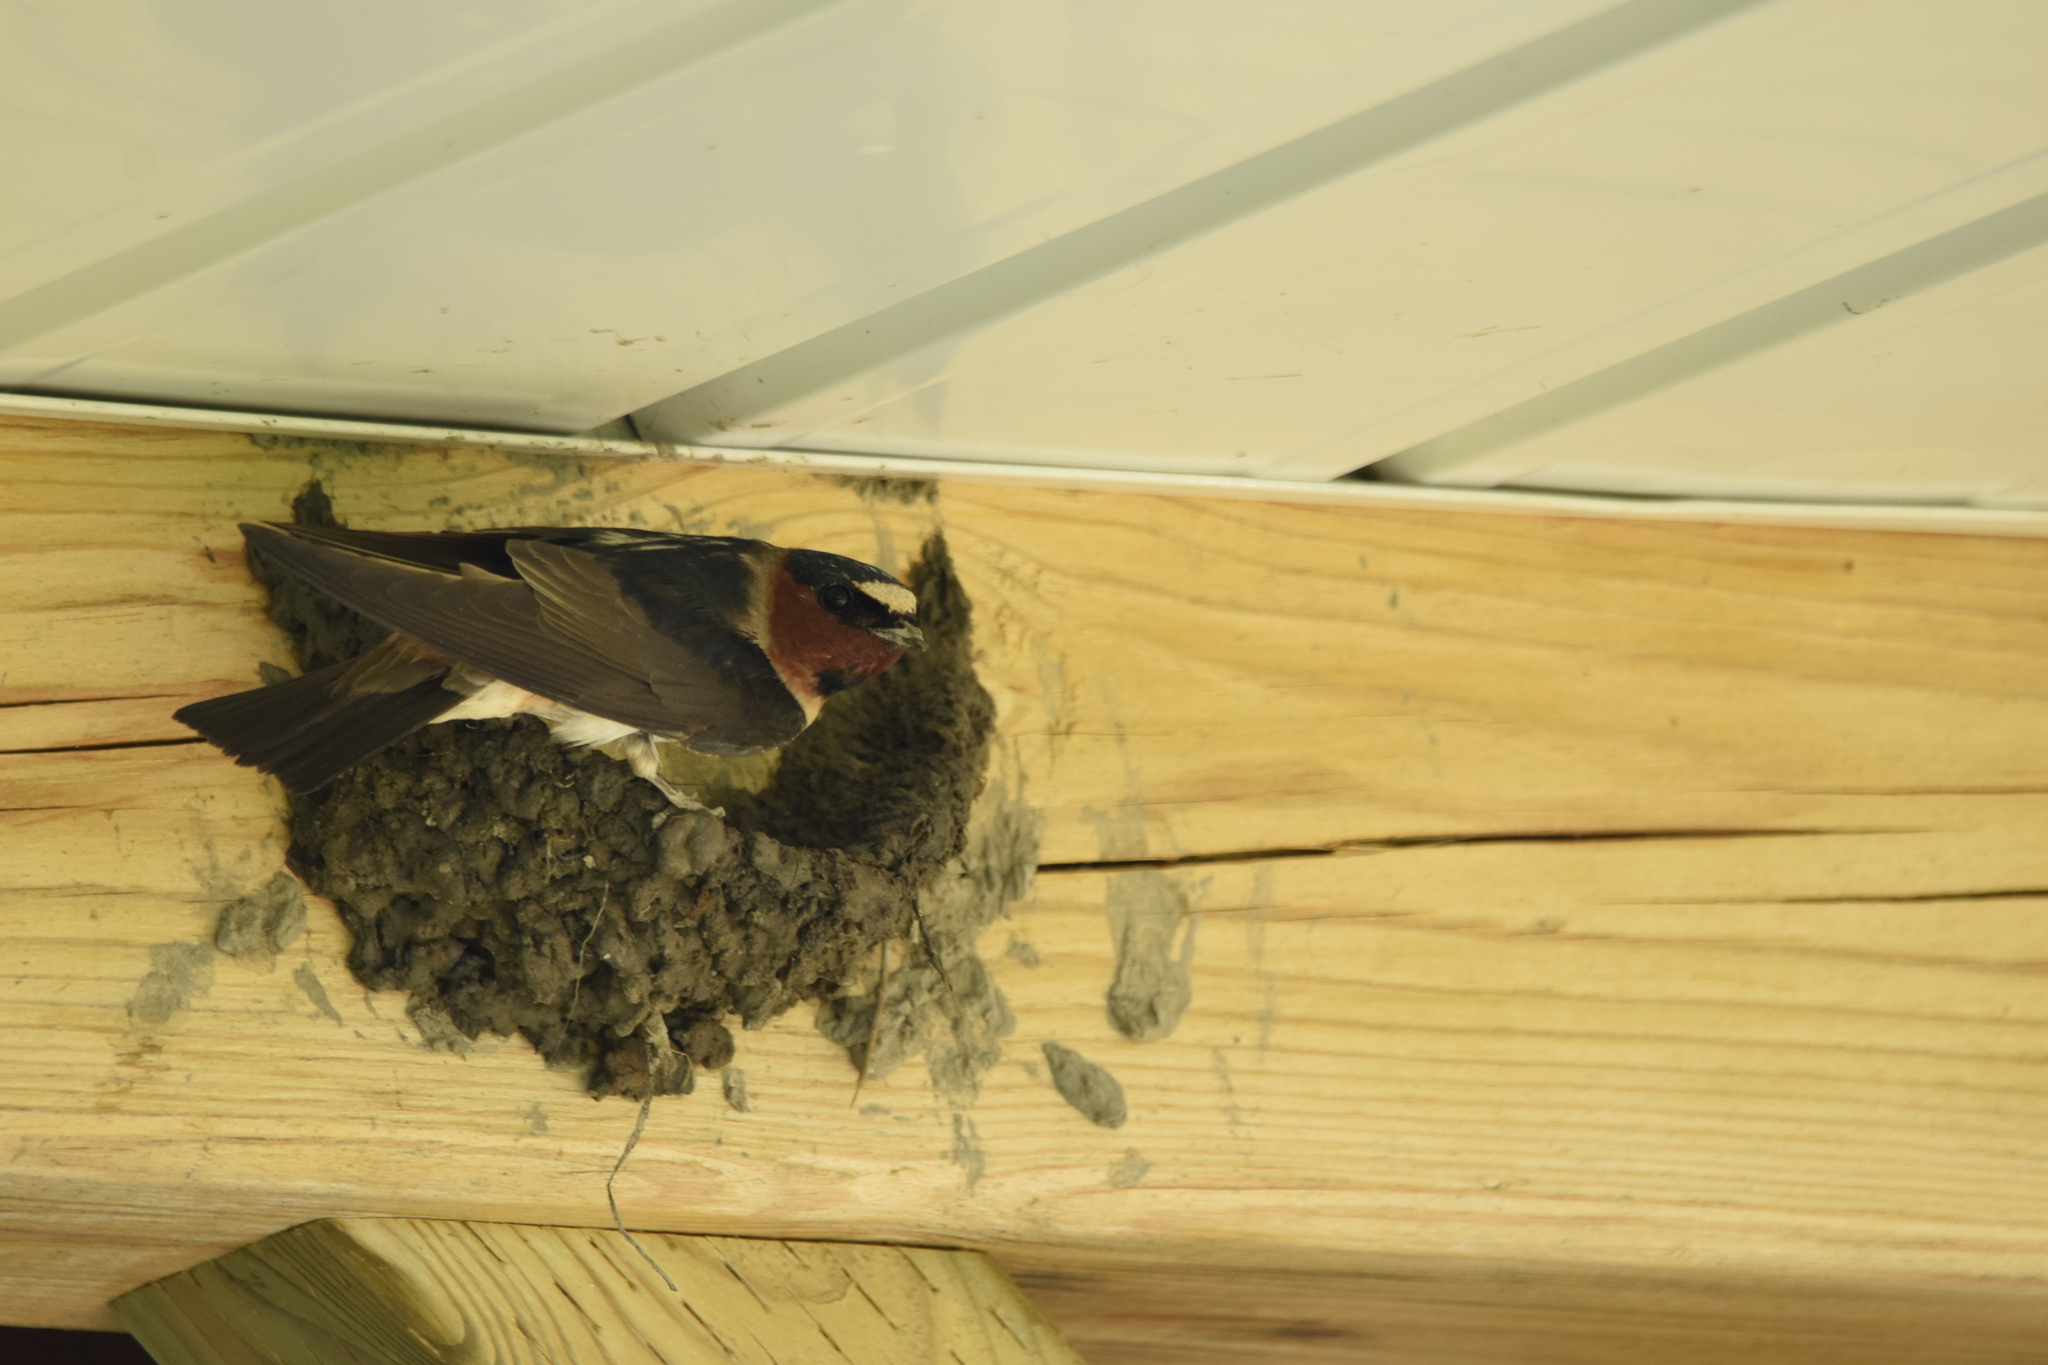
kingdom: Animalia
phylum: Chordata
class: Aves
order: Passeriformes
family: Hirundinidae
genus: Petrochelidon
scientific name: Petrochelidon pyrrhonota
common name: American cliff swallow
